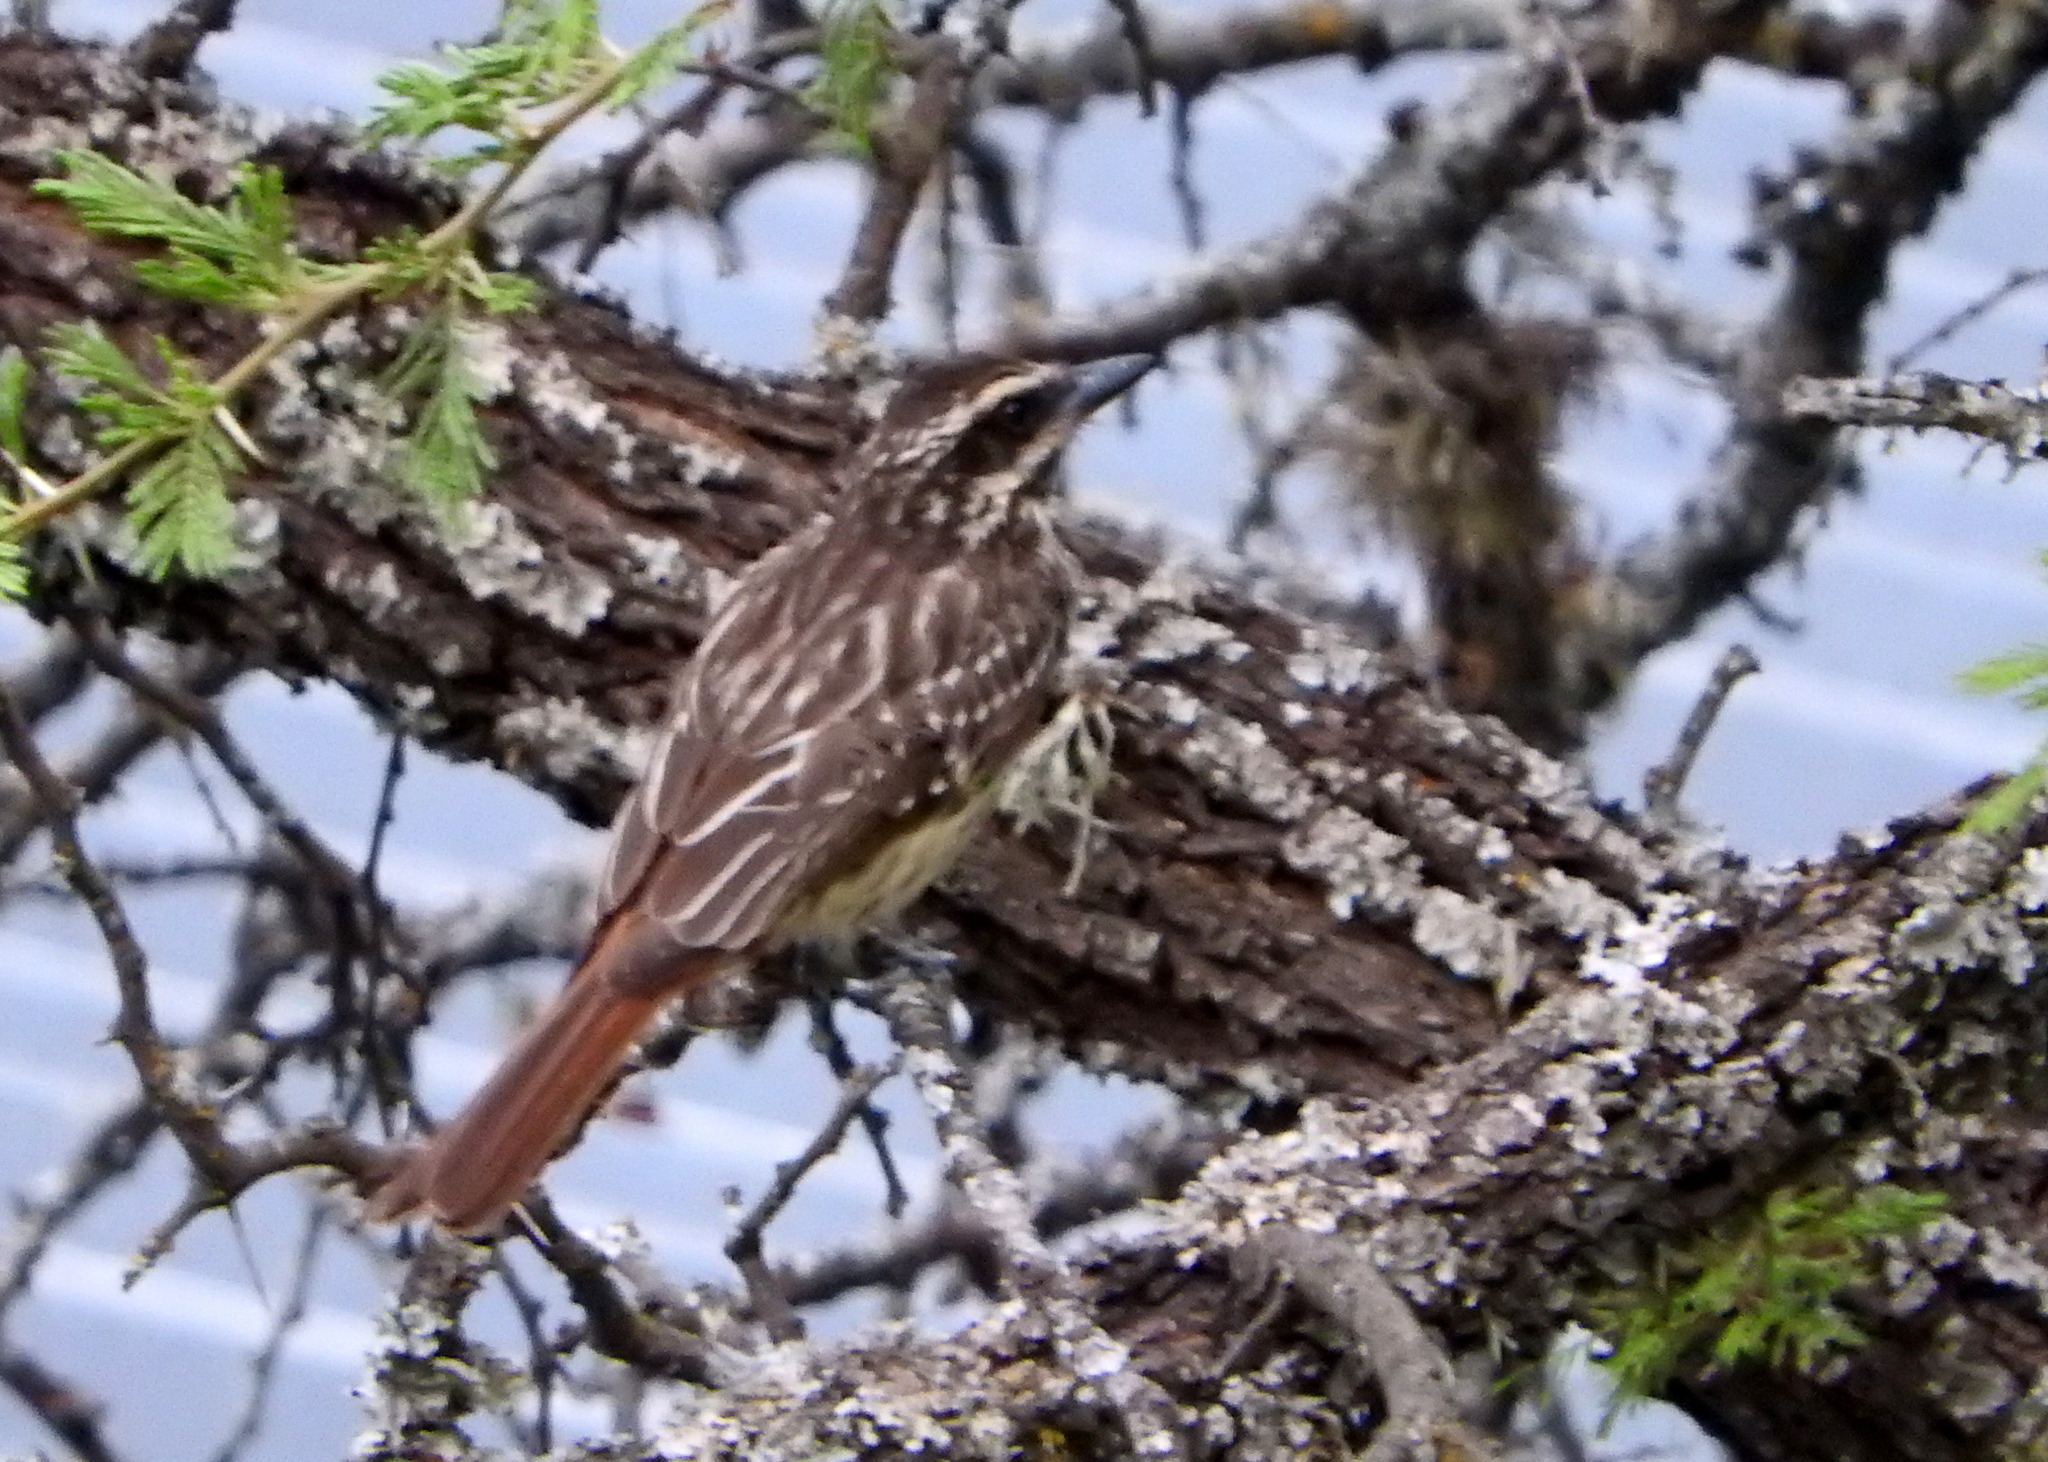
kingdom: Animalia
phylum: Chordata
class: Aves
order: Passeriformes
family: Tyrannidae
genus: Myiodynastes
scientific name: Myiodynastes maculatus
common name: Streaked flycatcher
